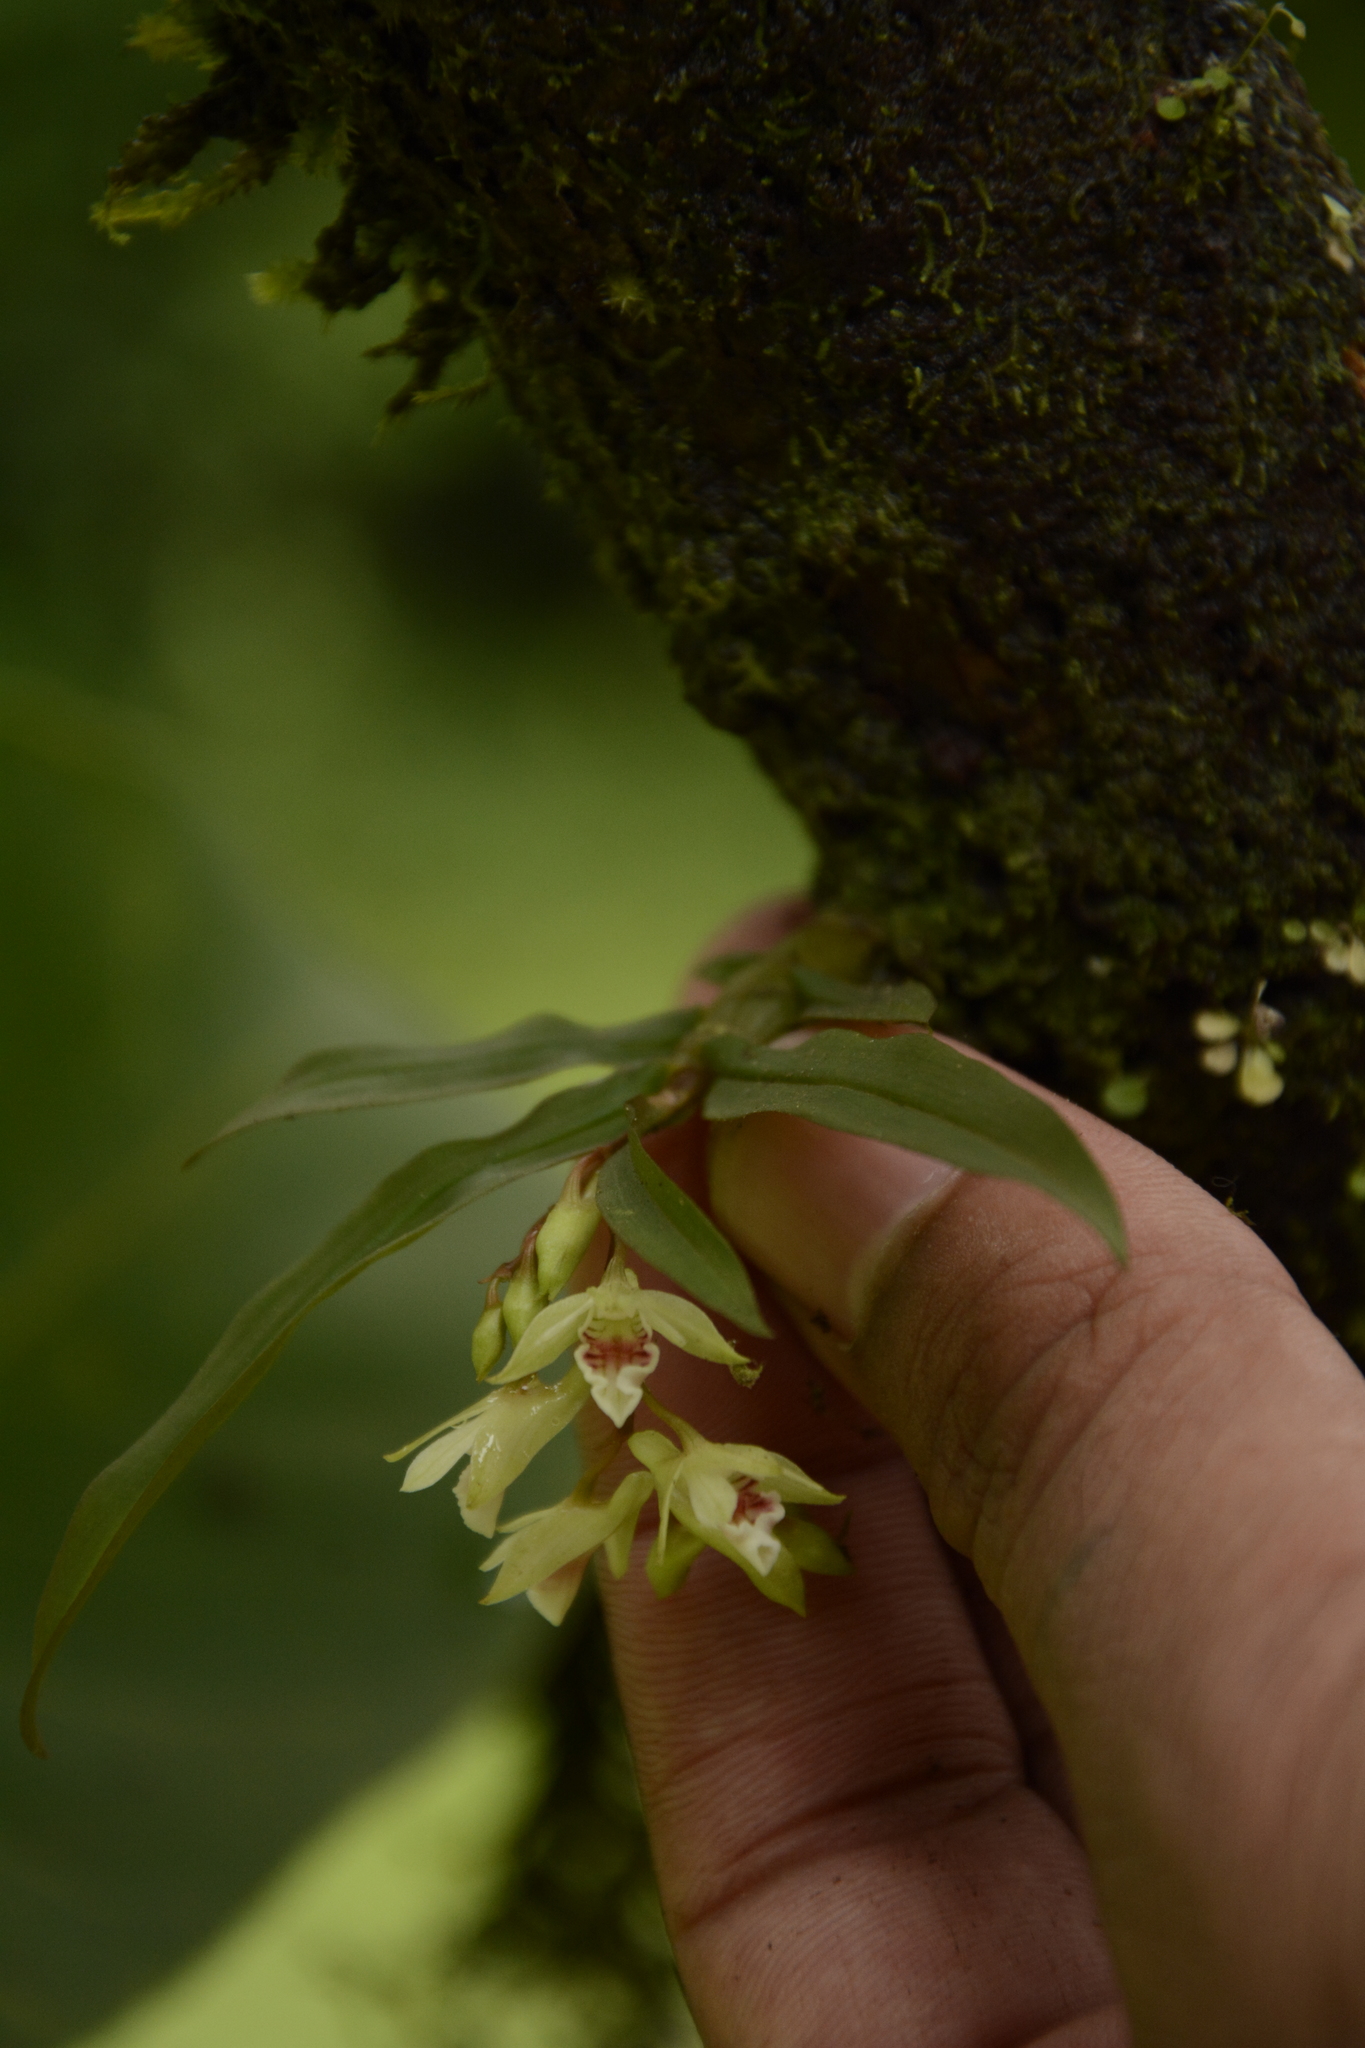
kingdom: Plantae
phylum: Tracheophyta
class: Liliopsida
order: Asparagales
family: Orchidaceae
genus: Dendrobium
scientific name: Dendrobium heyneanum
